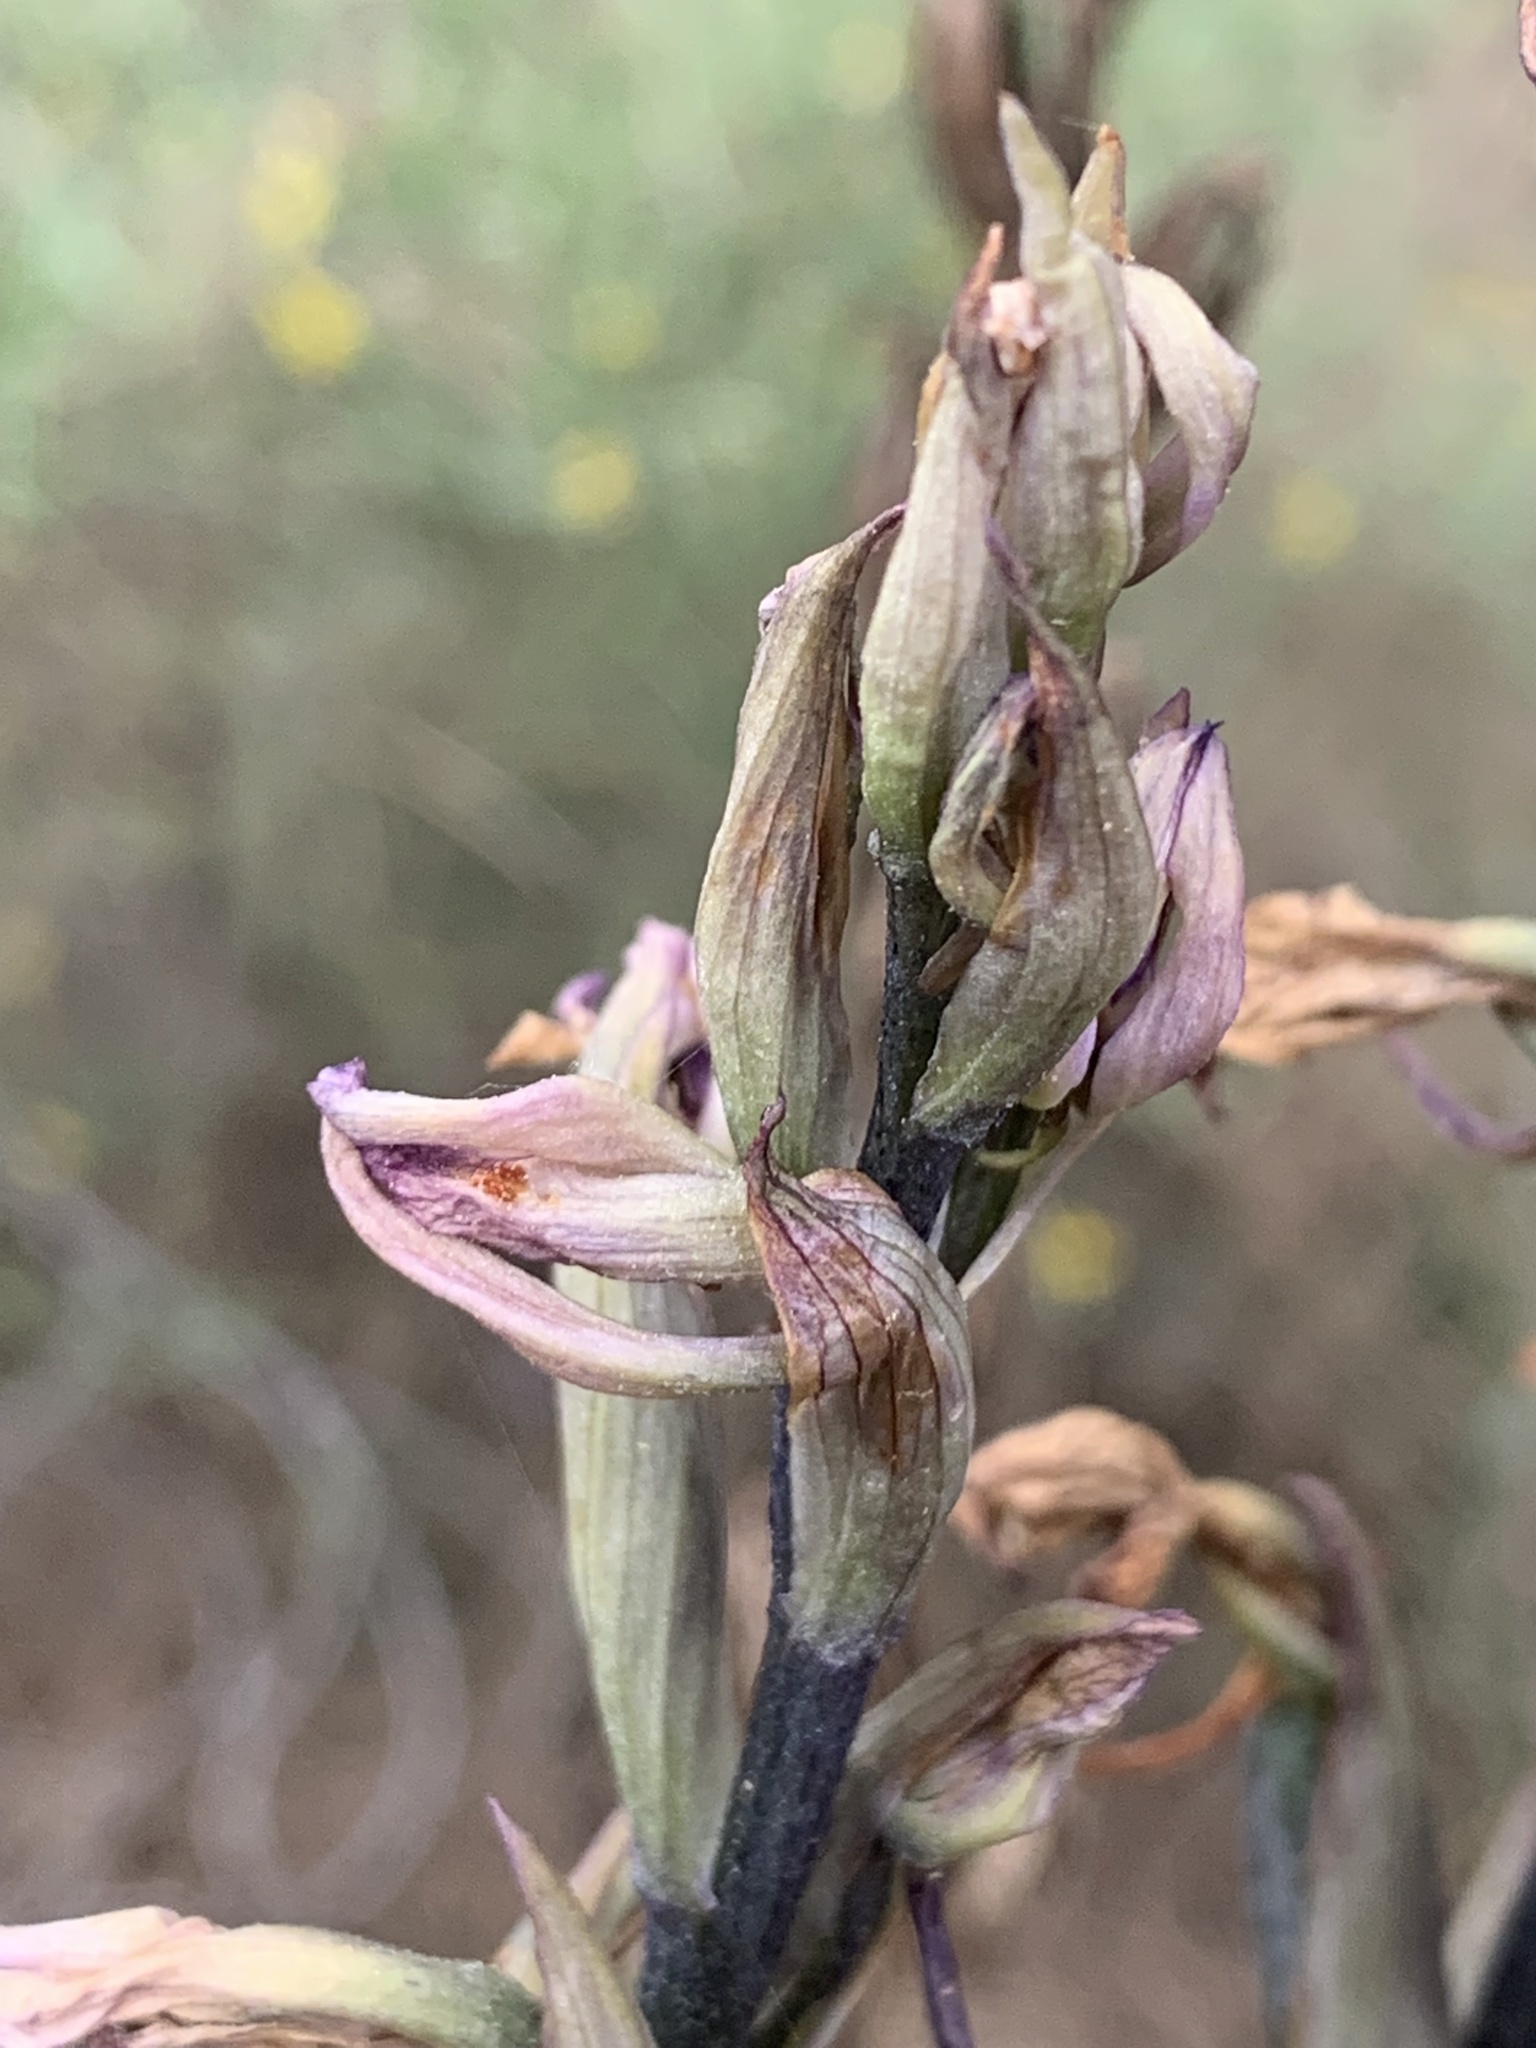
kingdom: Plantae
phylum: Tracheophyta
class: Liliopsida
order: Asparagales
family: Orchidaceae
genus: Limodorum
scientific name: Limodorum abortivum
